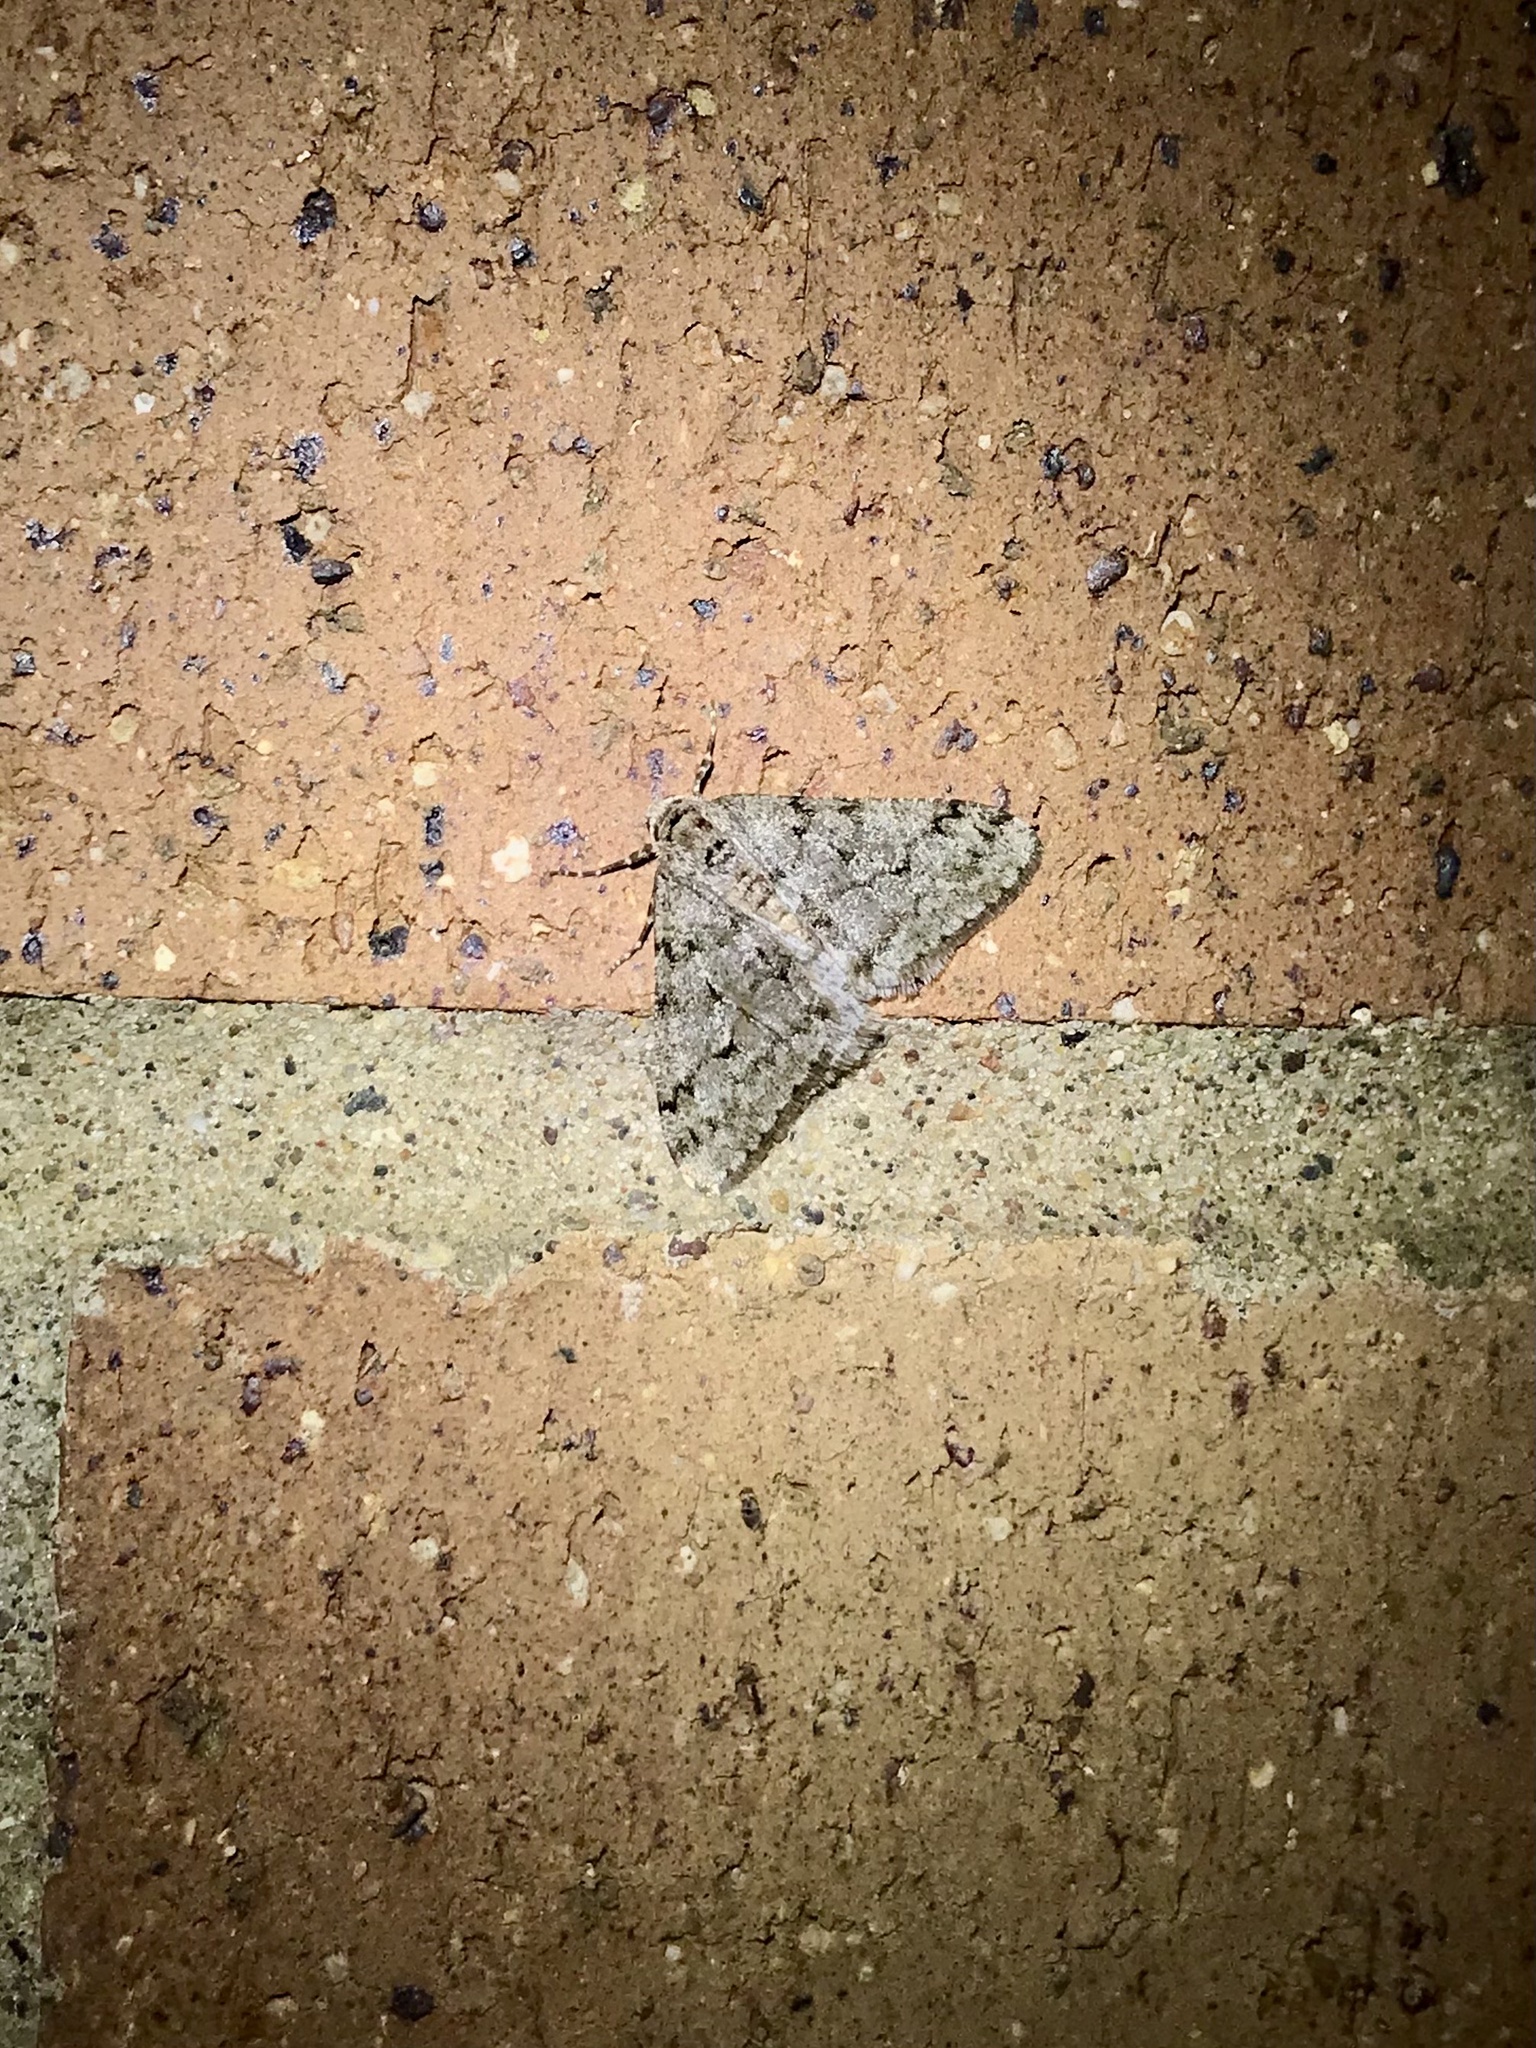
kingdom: Animalia
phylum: Arthropoda
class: Insecta
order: Lepidoptera
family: Geometridae
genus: Phigalia
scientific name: Phigalia strigataria
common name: Small phigalia
